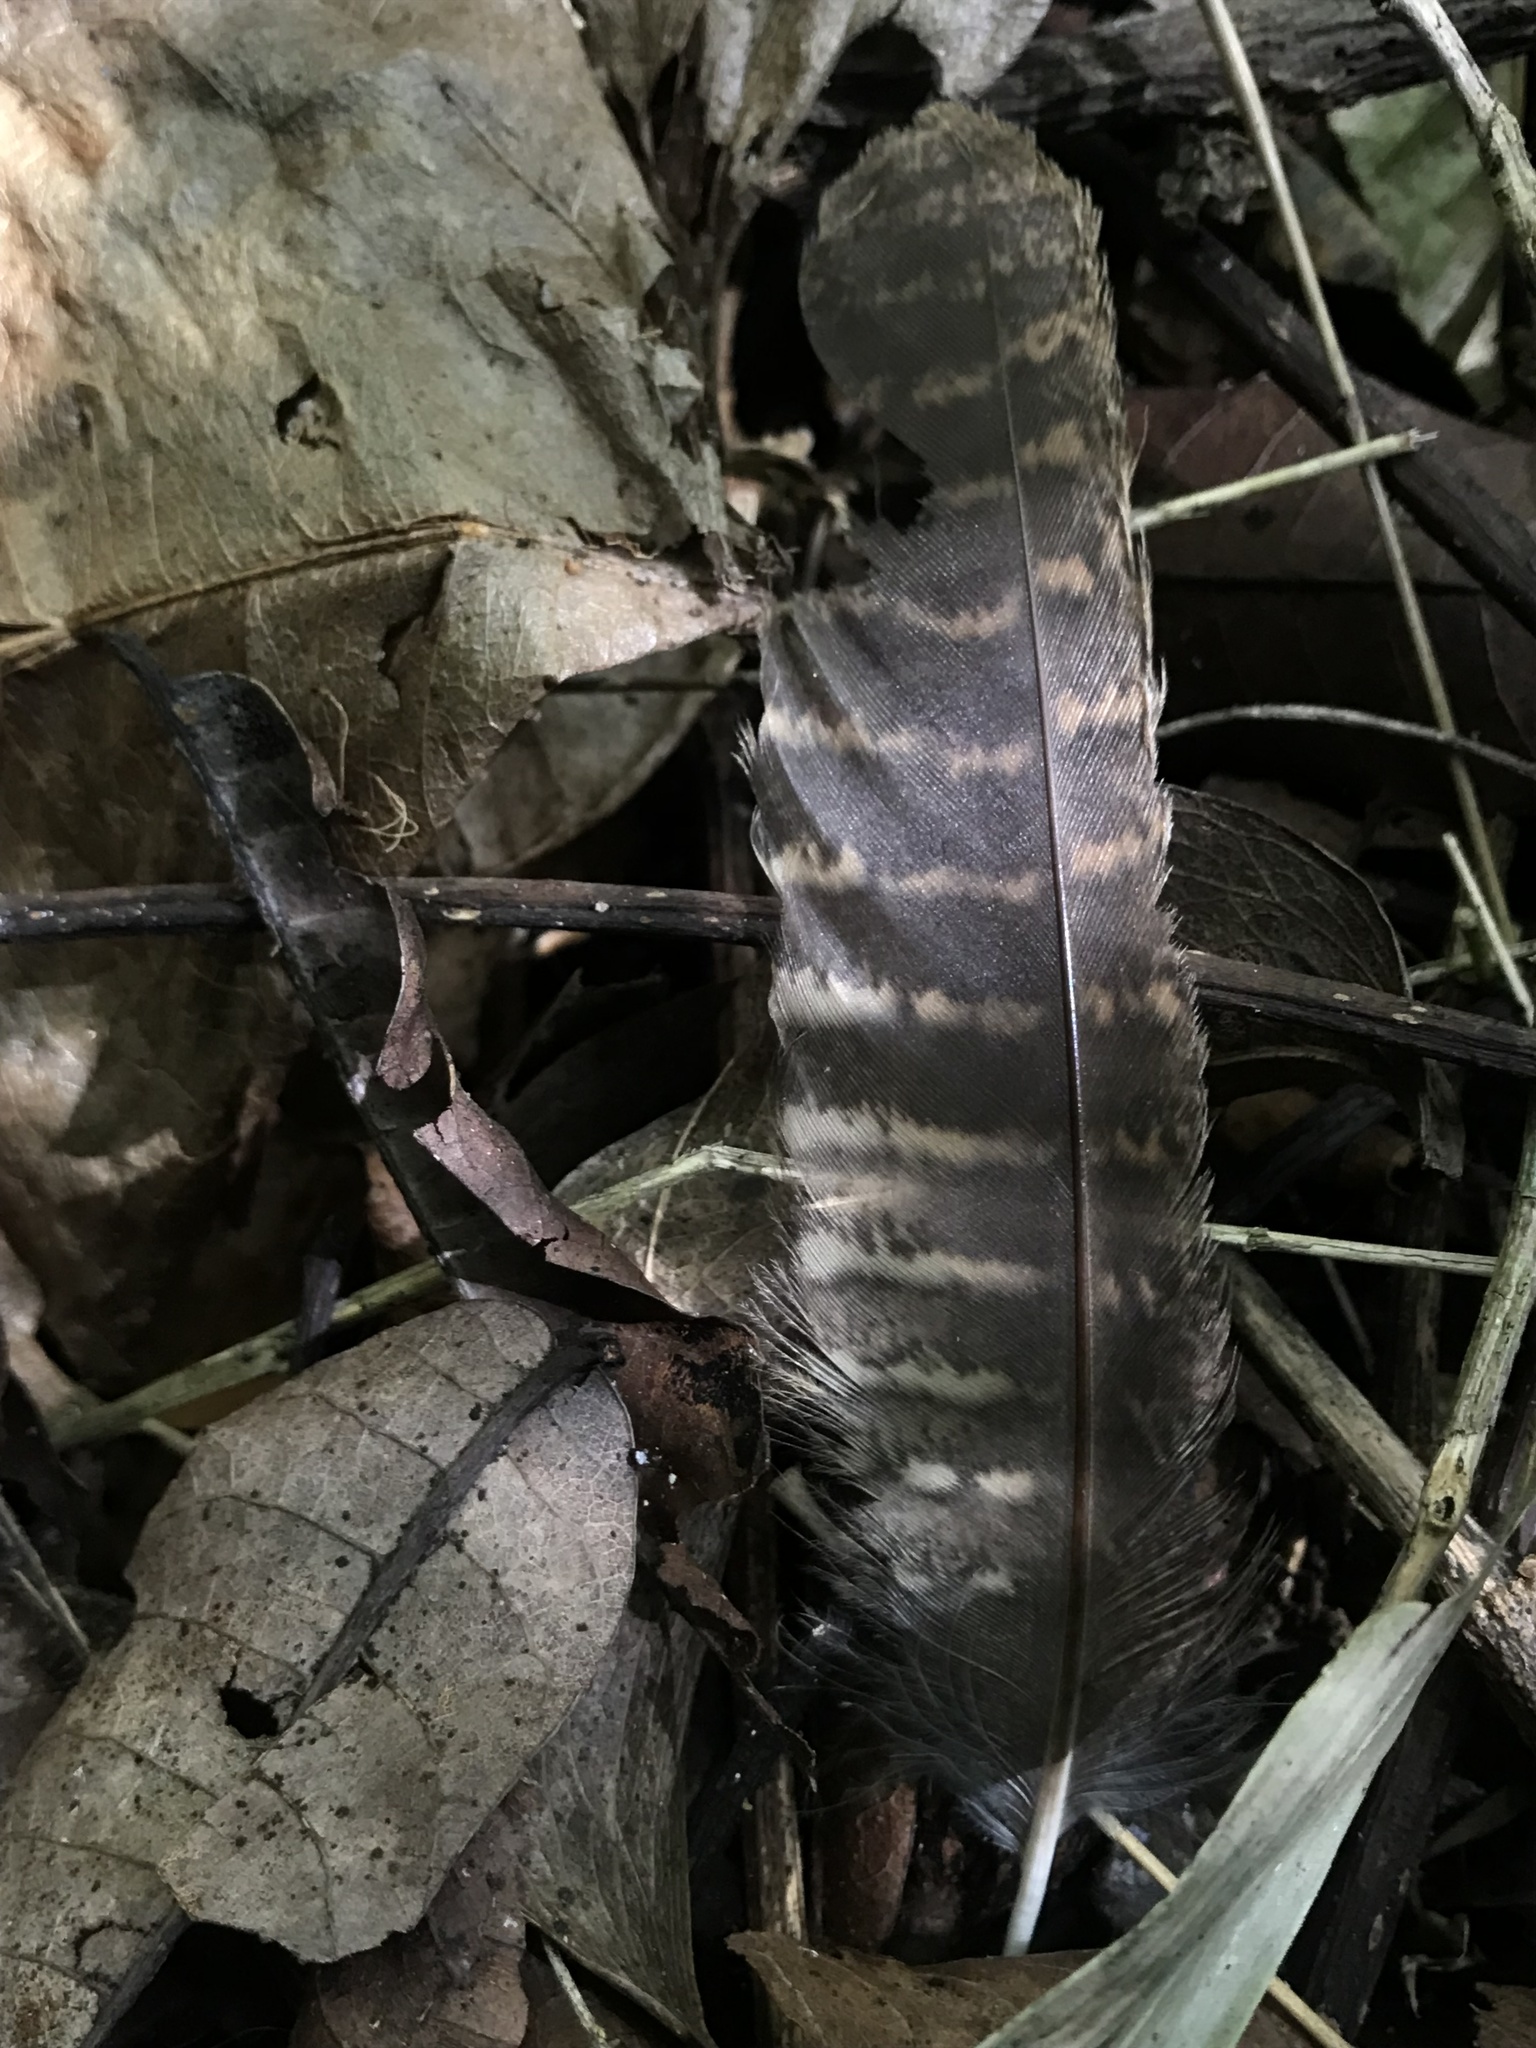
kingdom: Animalia
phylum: Chordata
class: Aves
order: Strigiformes
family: Strigidae
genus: Megascops
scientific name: Megascops albogularis
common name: White-throated screech owl
